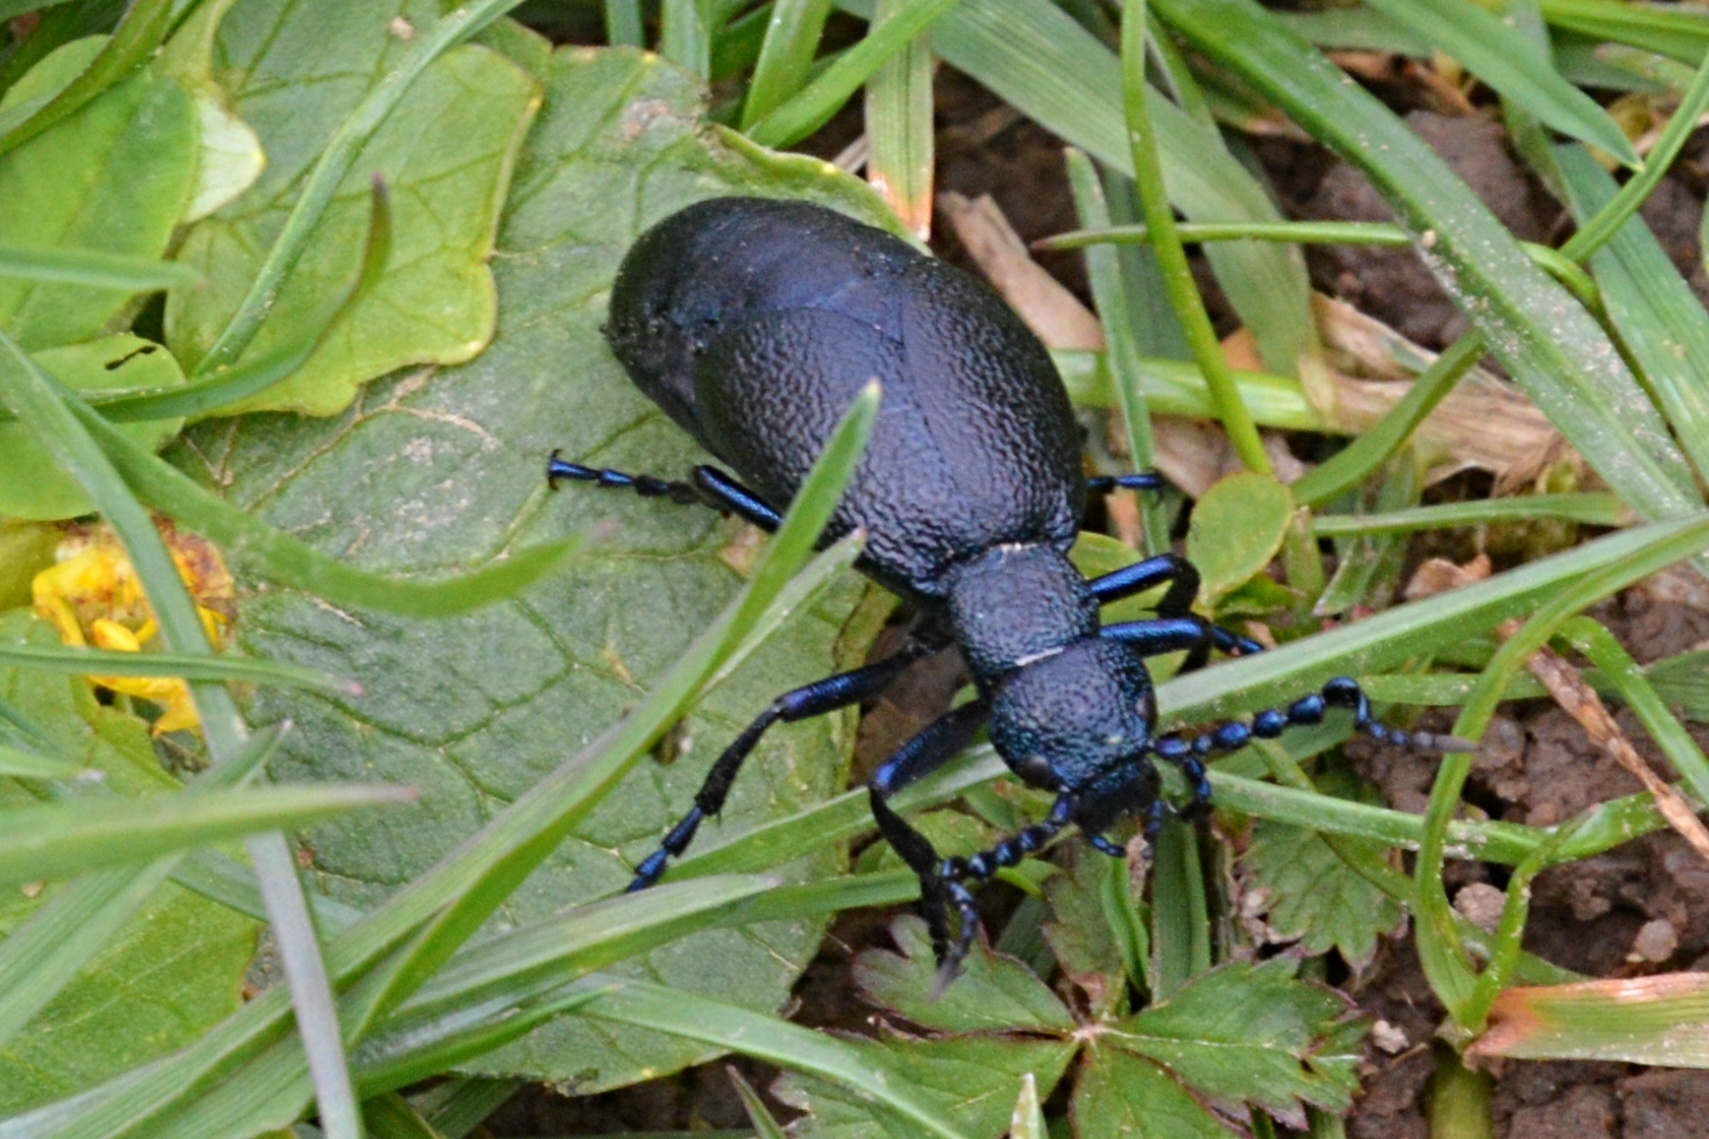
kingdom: Animalia
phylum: Arthropoda
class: Insecta
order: Coleoptera
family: Meloidae
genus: Meloe
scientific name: Meloe proscarabaeus
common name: Black oil-beetle
